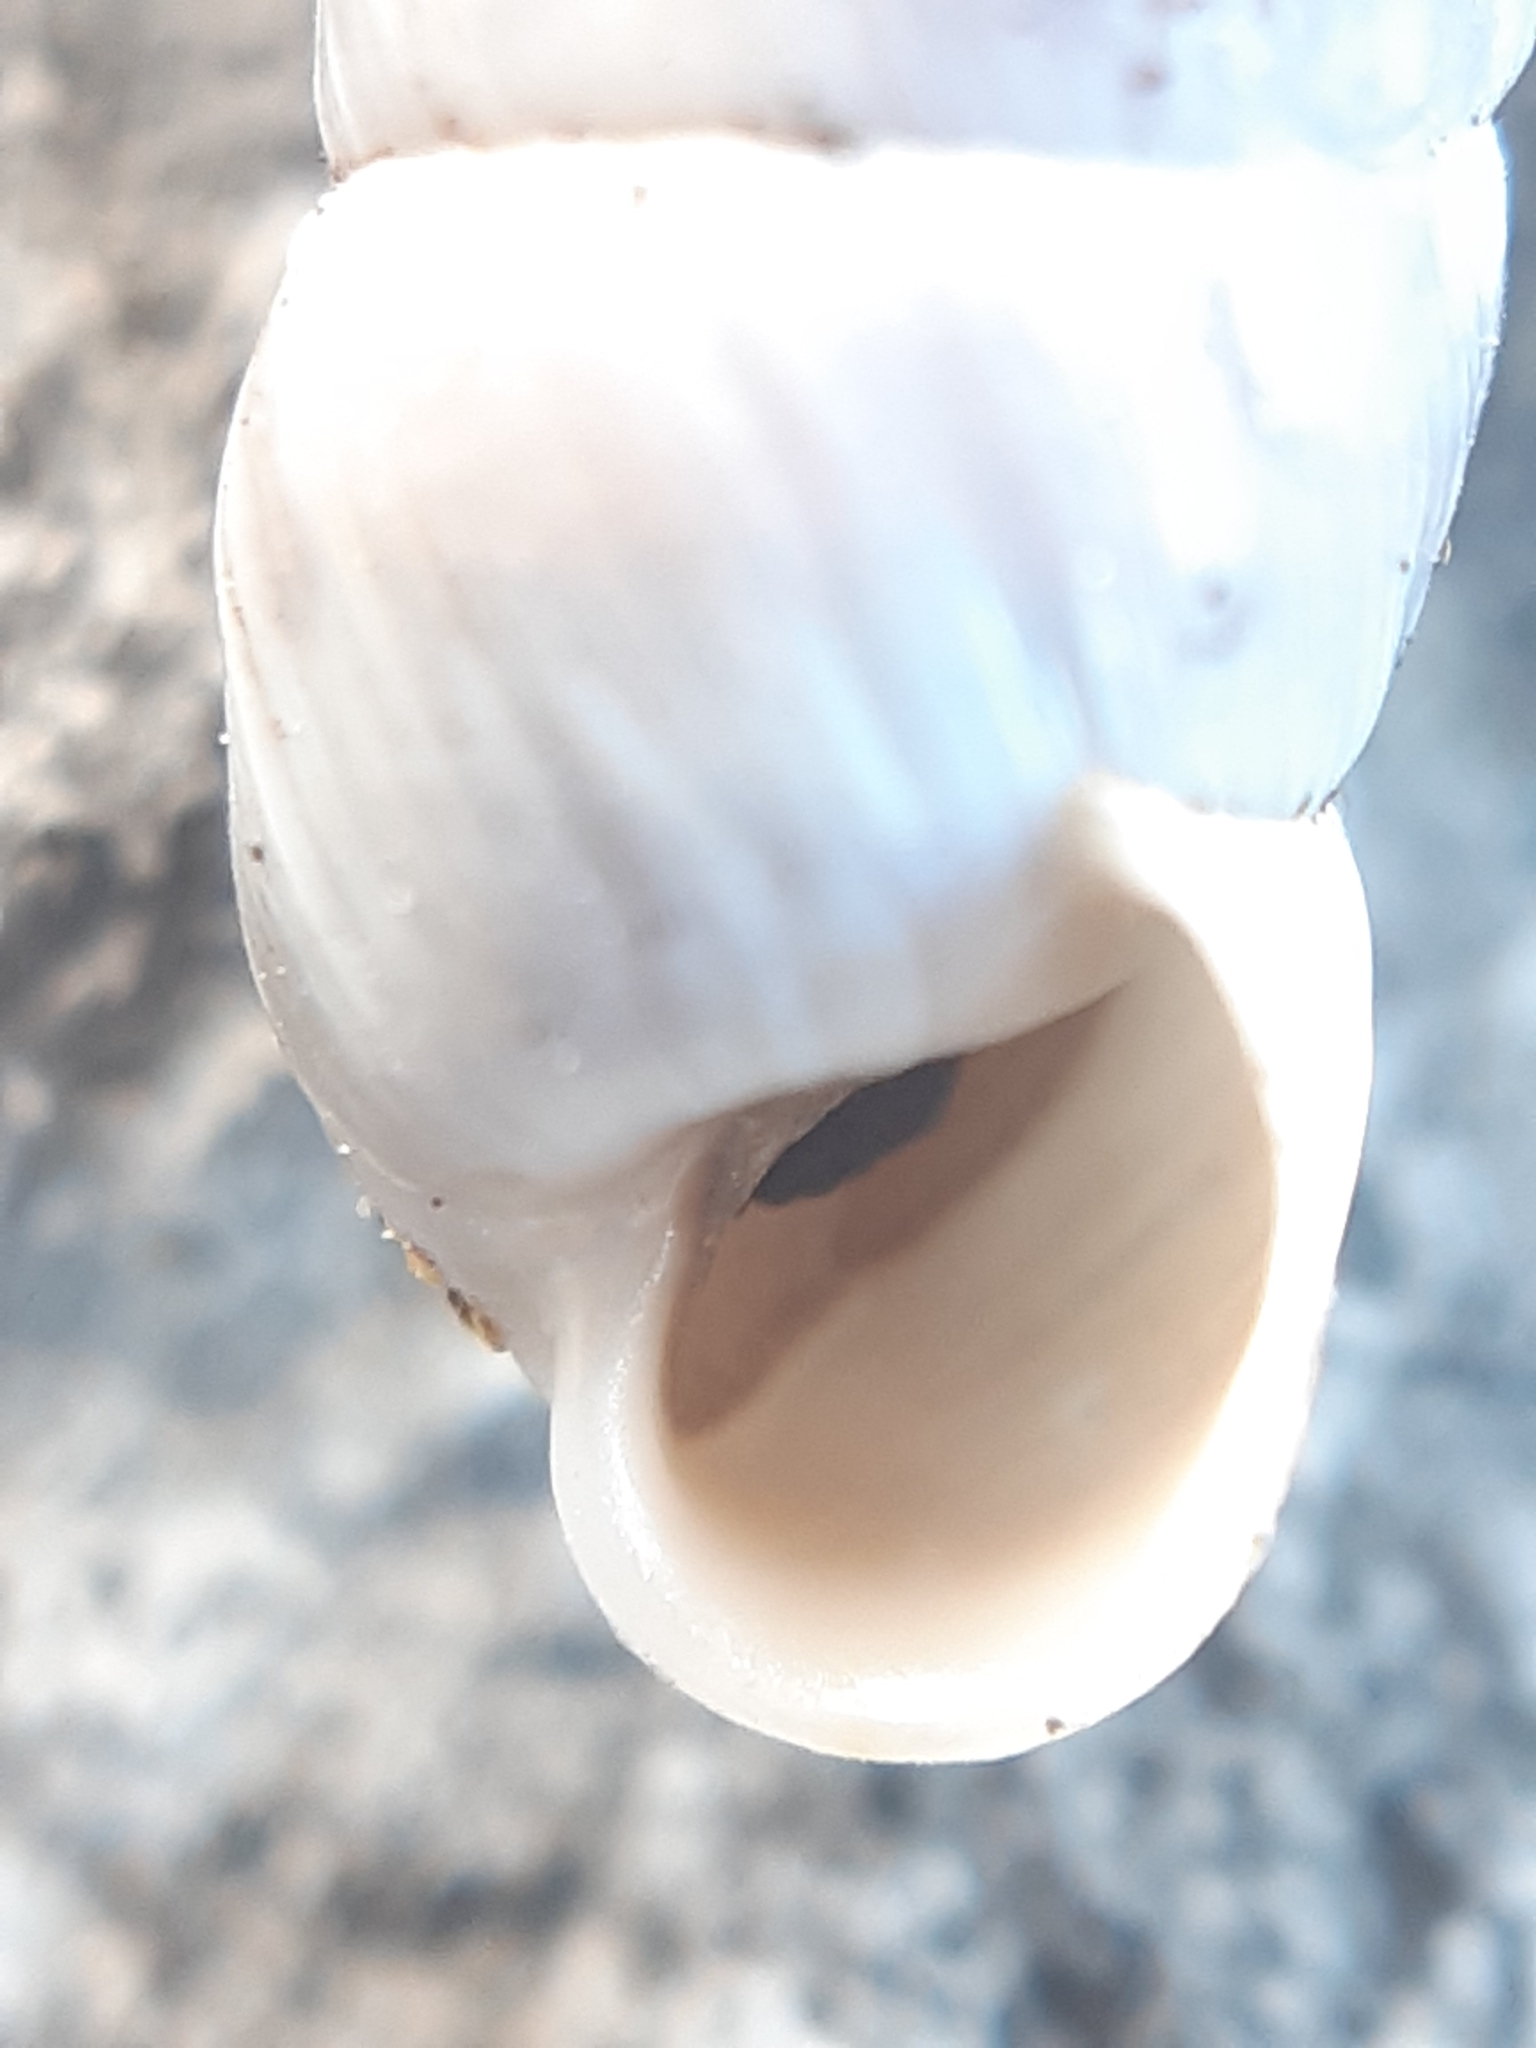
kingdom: Animalia
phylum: Mollusca
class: Gastropoda
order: Stylommatophora
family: Helicidae
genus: Cylindrus
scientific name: Cylindrus obtusus
